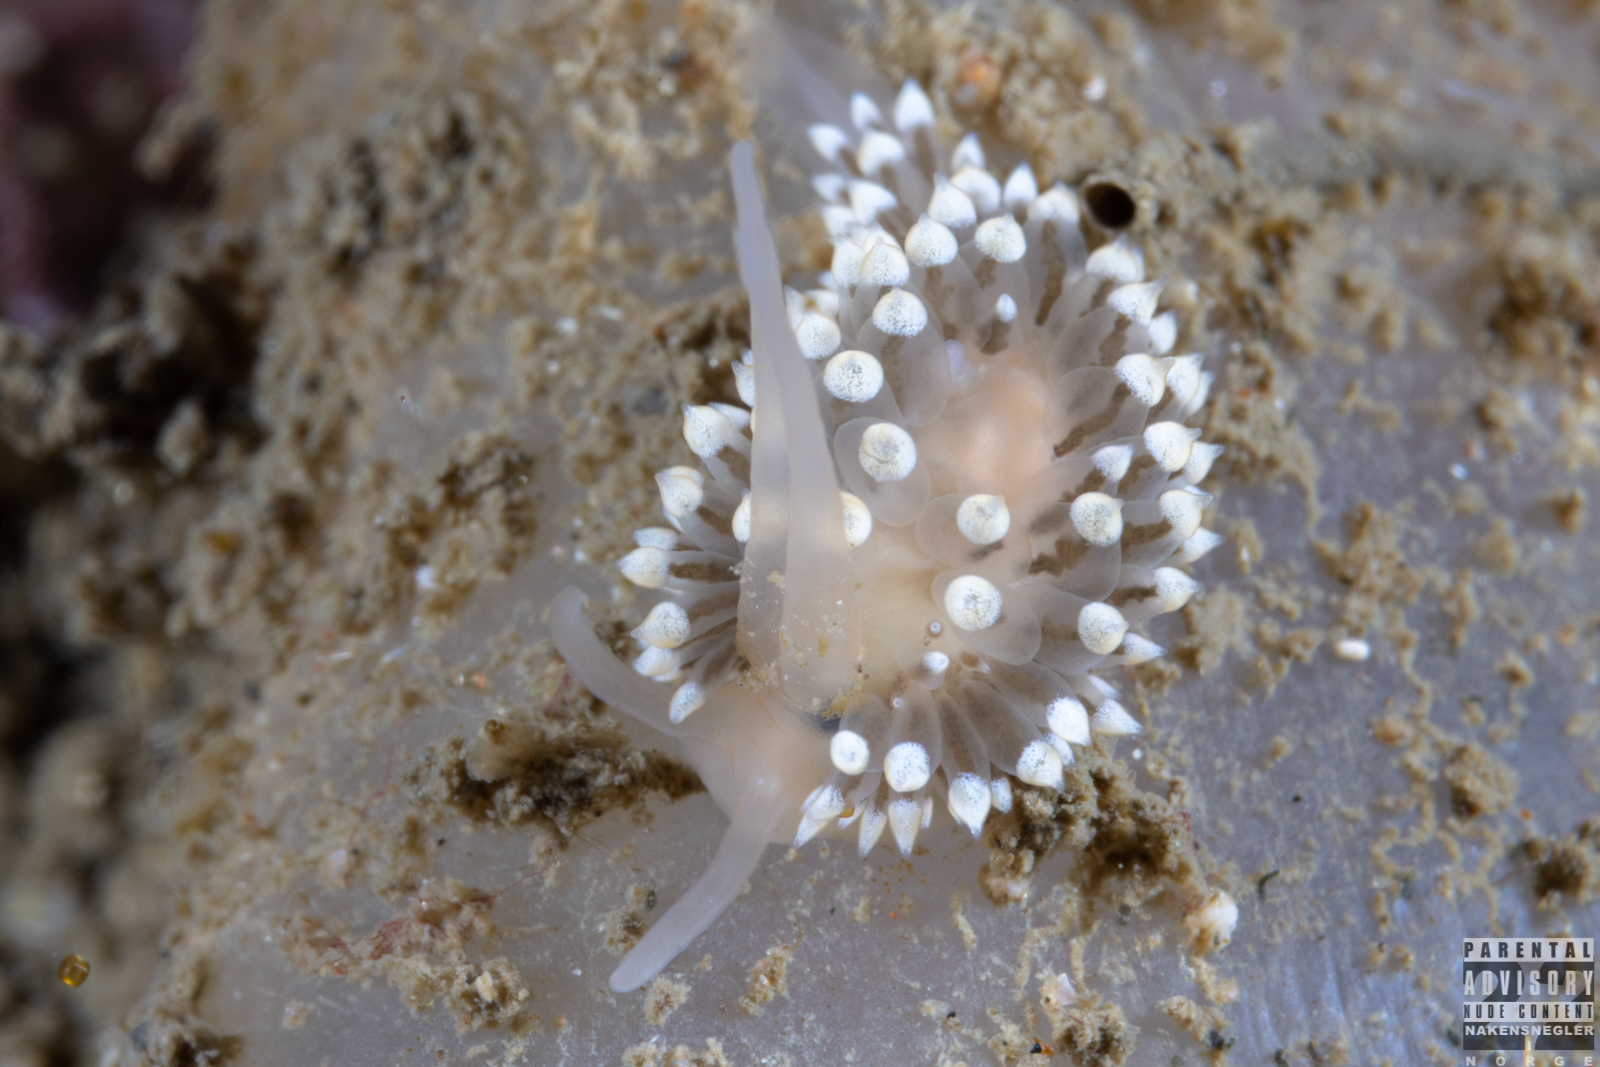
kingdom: Animalia
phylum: Mollusca
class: Gastropoda
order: Nudibranchia
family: Eubranchidae
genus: Eubranchus
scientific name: Eubranchus tricolor
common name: Painted balloon aeolis
